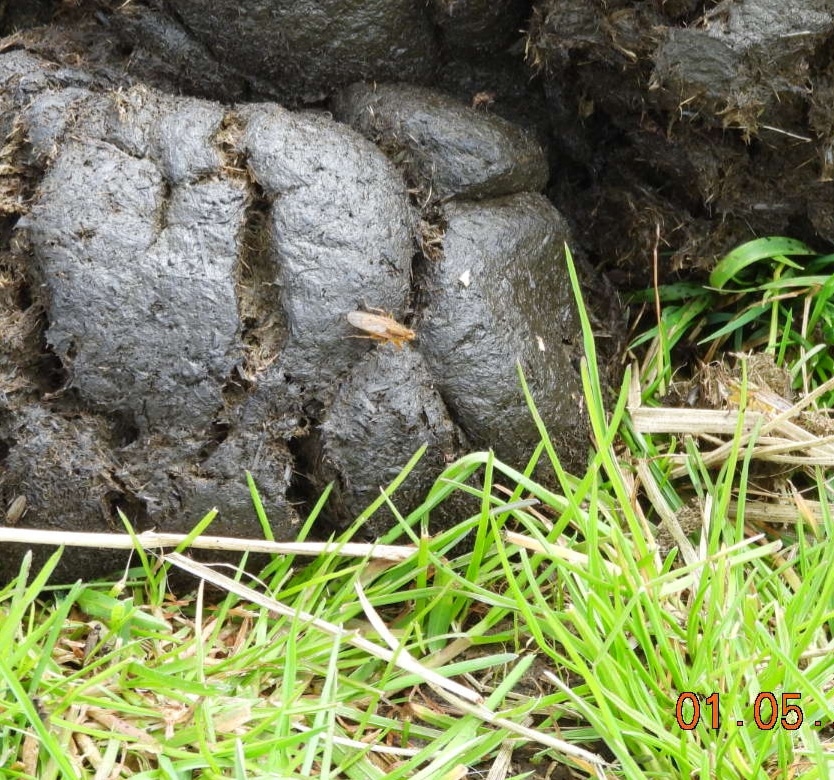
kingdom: Animalia
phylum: Arthropoda
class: Insecta
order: Diptera
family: Scathophagidae
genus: Scathophaga
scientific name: Scathophaga stercoraria
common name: Yellow dung fly
